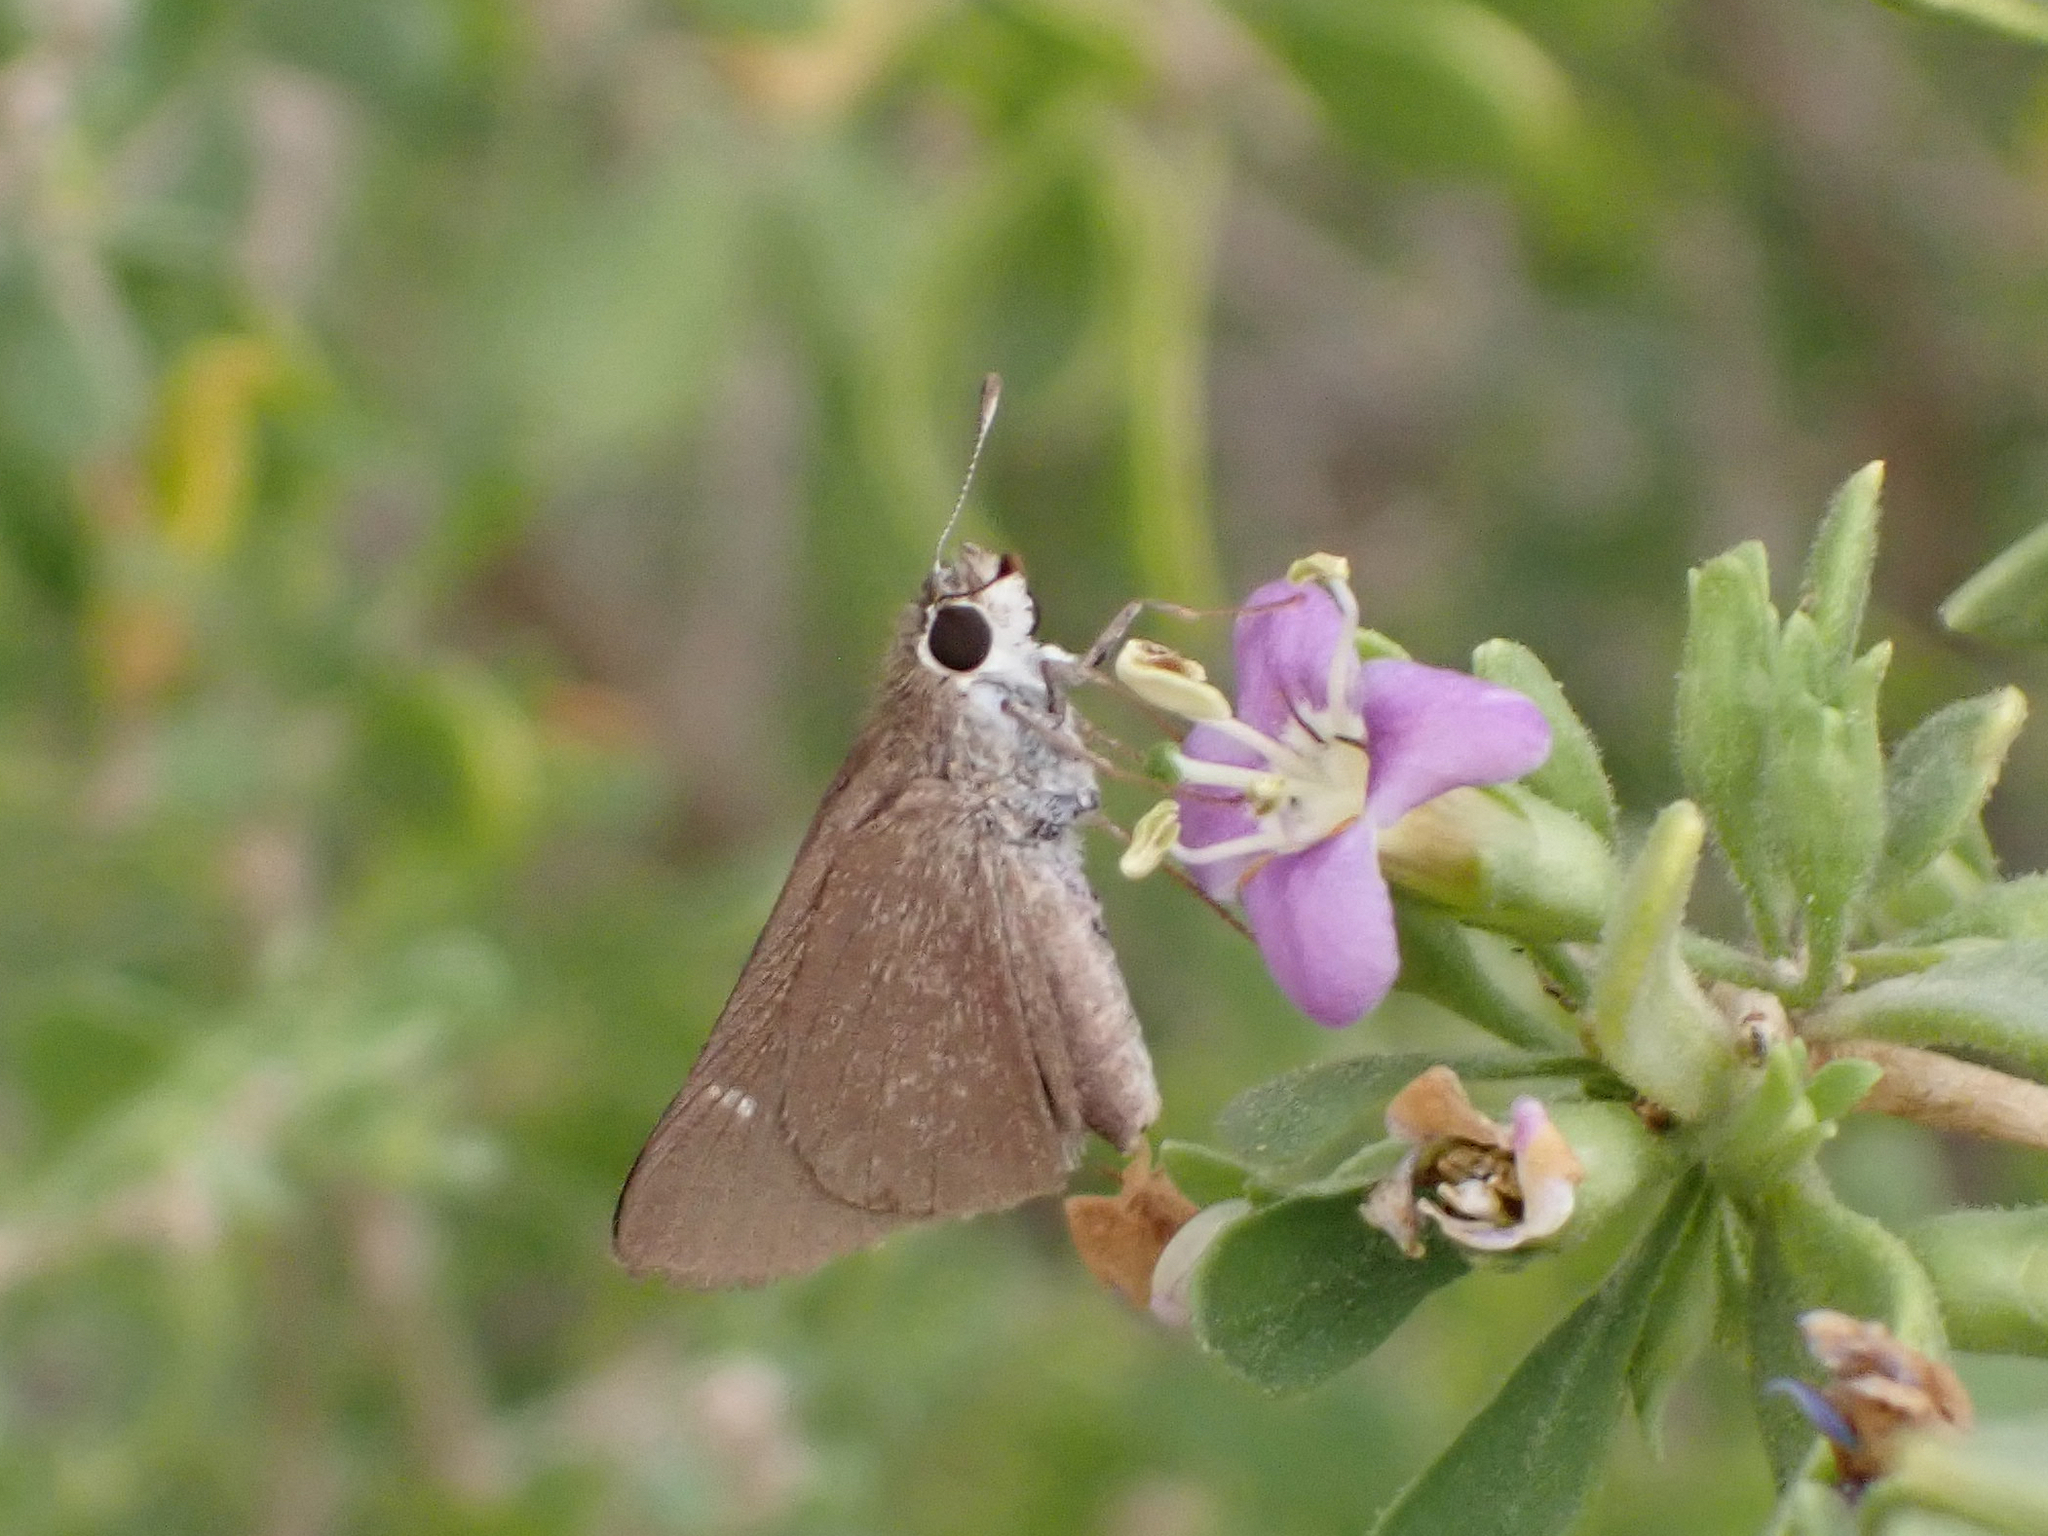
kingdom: Animalia
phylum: Arthropoda
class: Insecta
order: Lepidoptera
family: Hesperiidae
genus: Lerodea
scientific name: Lerodea eufala
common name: Eufala skipper
